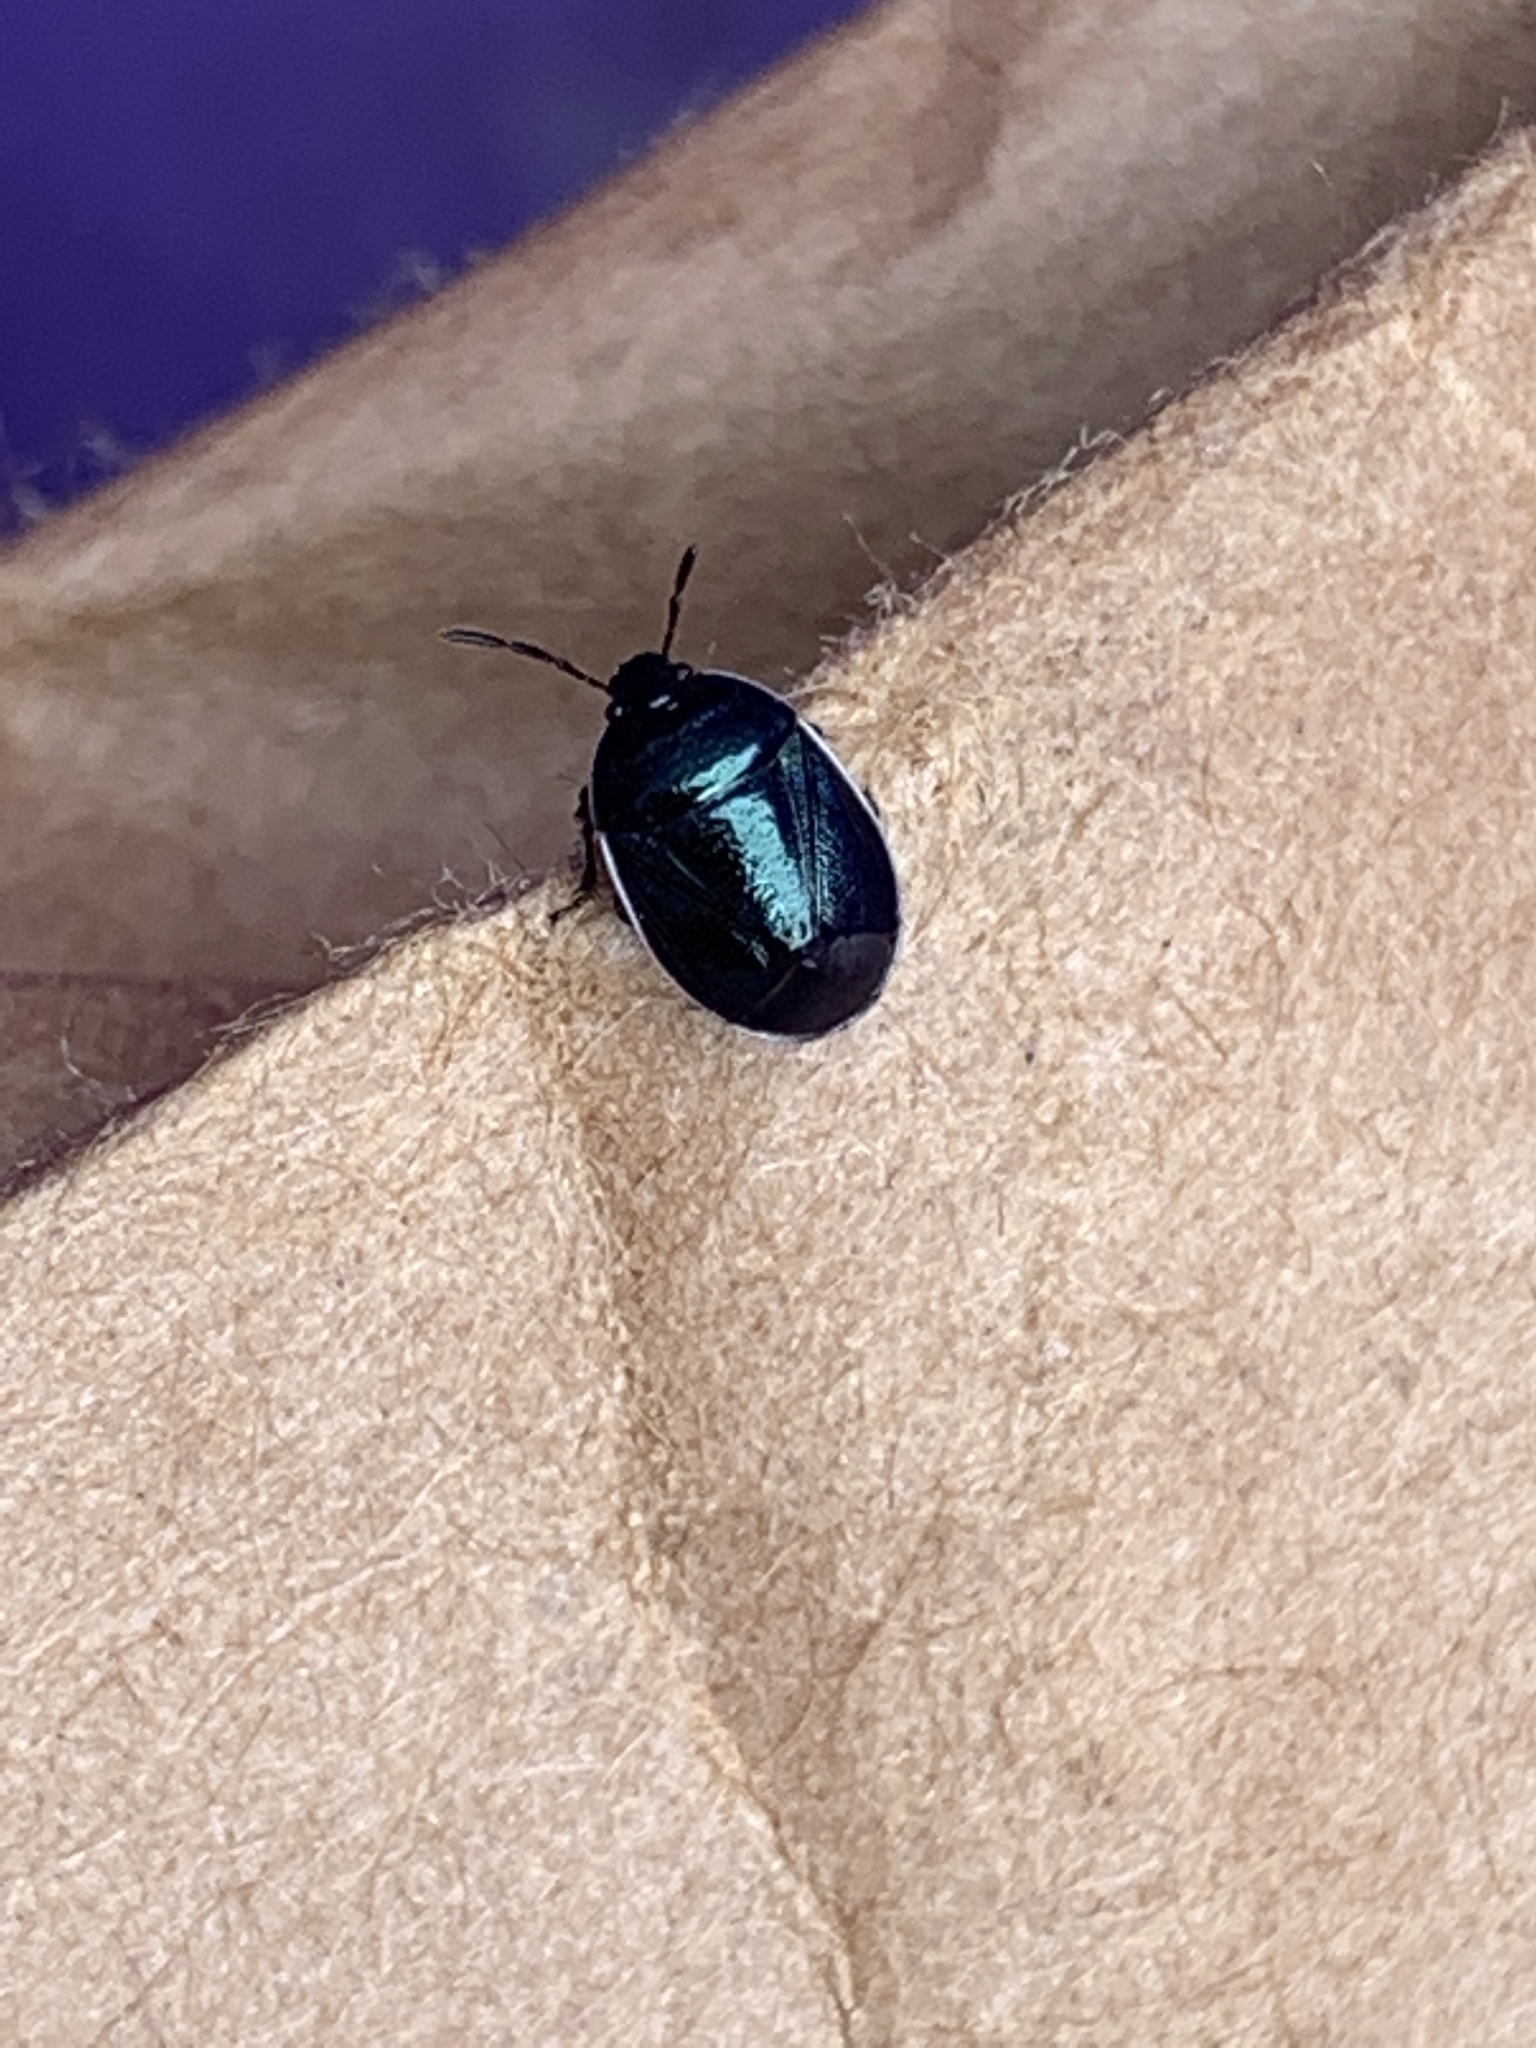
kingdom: Animalia
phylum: Arthropoda
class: Insecta
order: Hemiptera
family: Cydnidae
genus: Sehirus
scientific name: Sehirus cinctus
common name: White-margined burrower bug
